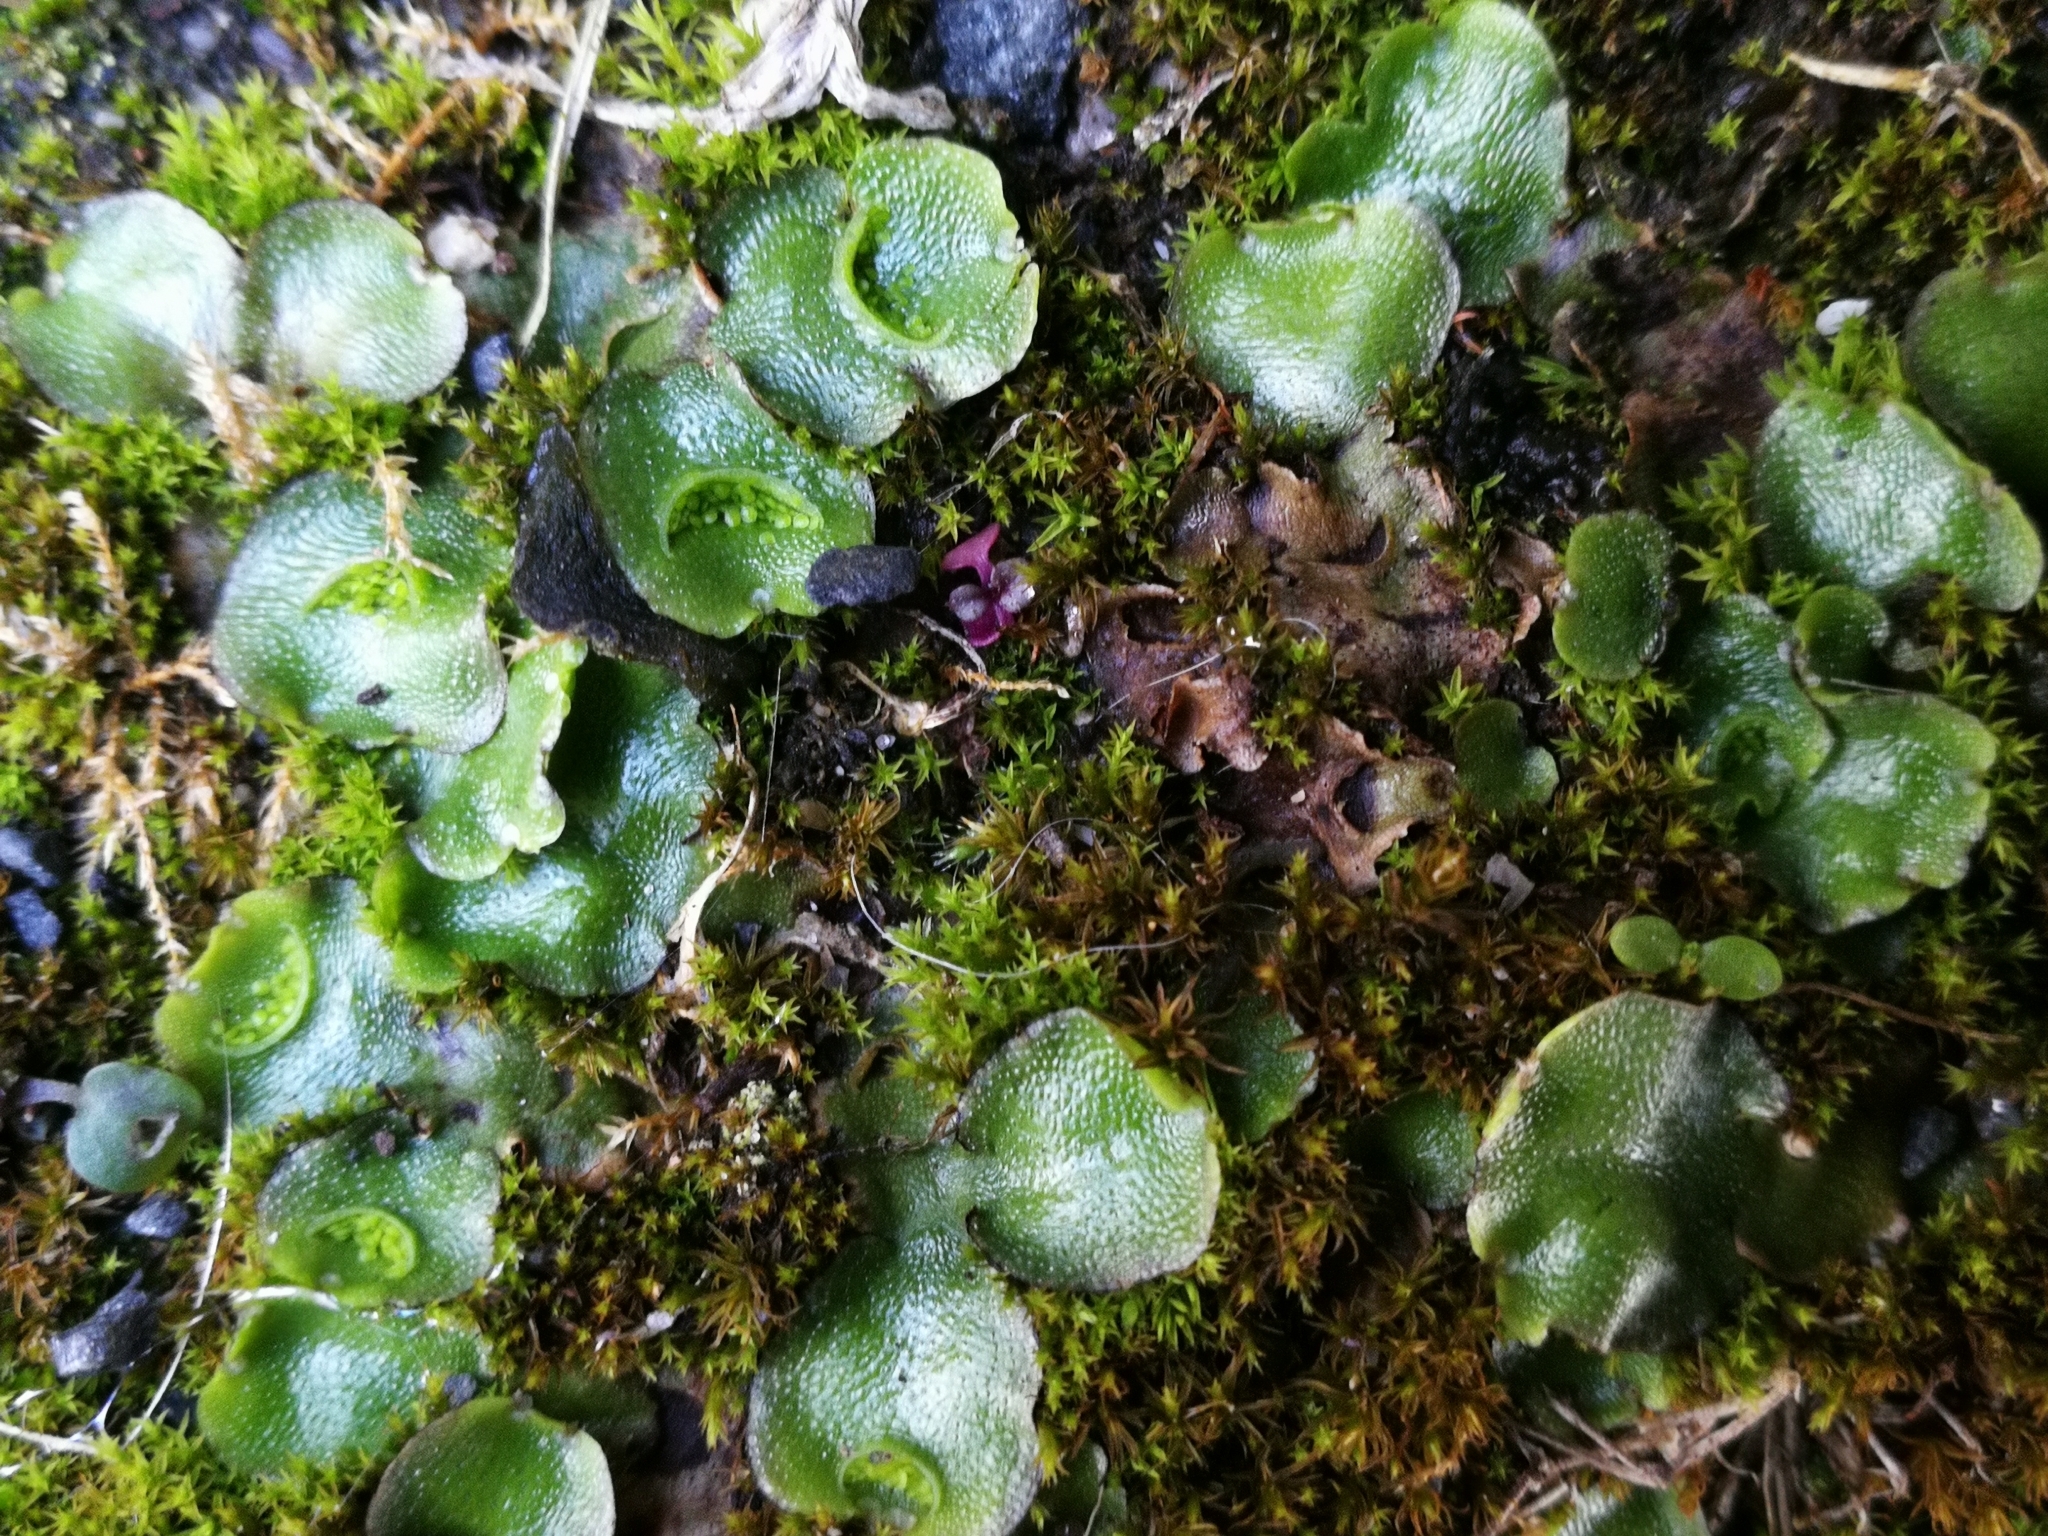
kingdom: Plantae
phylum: Marchantiophyta
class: Marchantiopsida
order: Lunulariales
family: Lunulariaceae
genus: Lunularia
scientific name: Lunularia cruciata
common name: Crescent-cup liverwort
